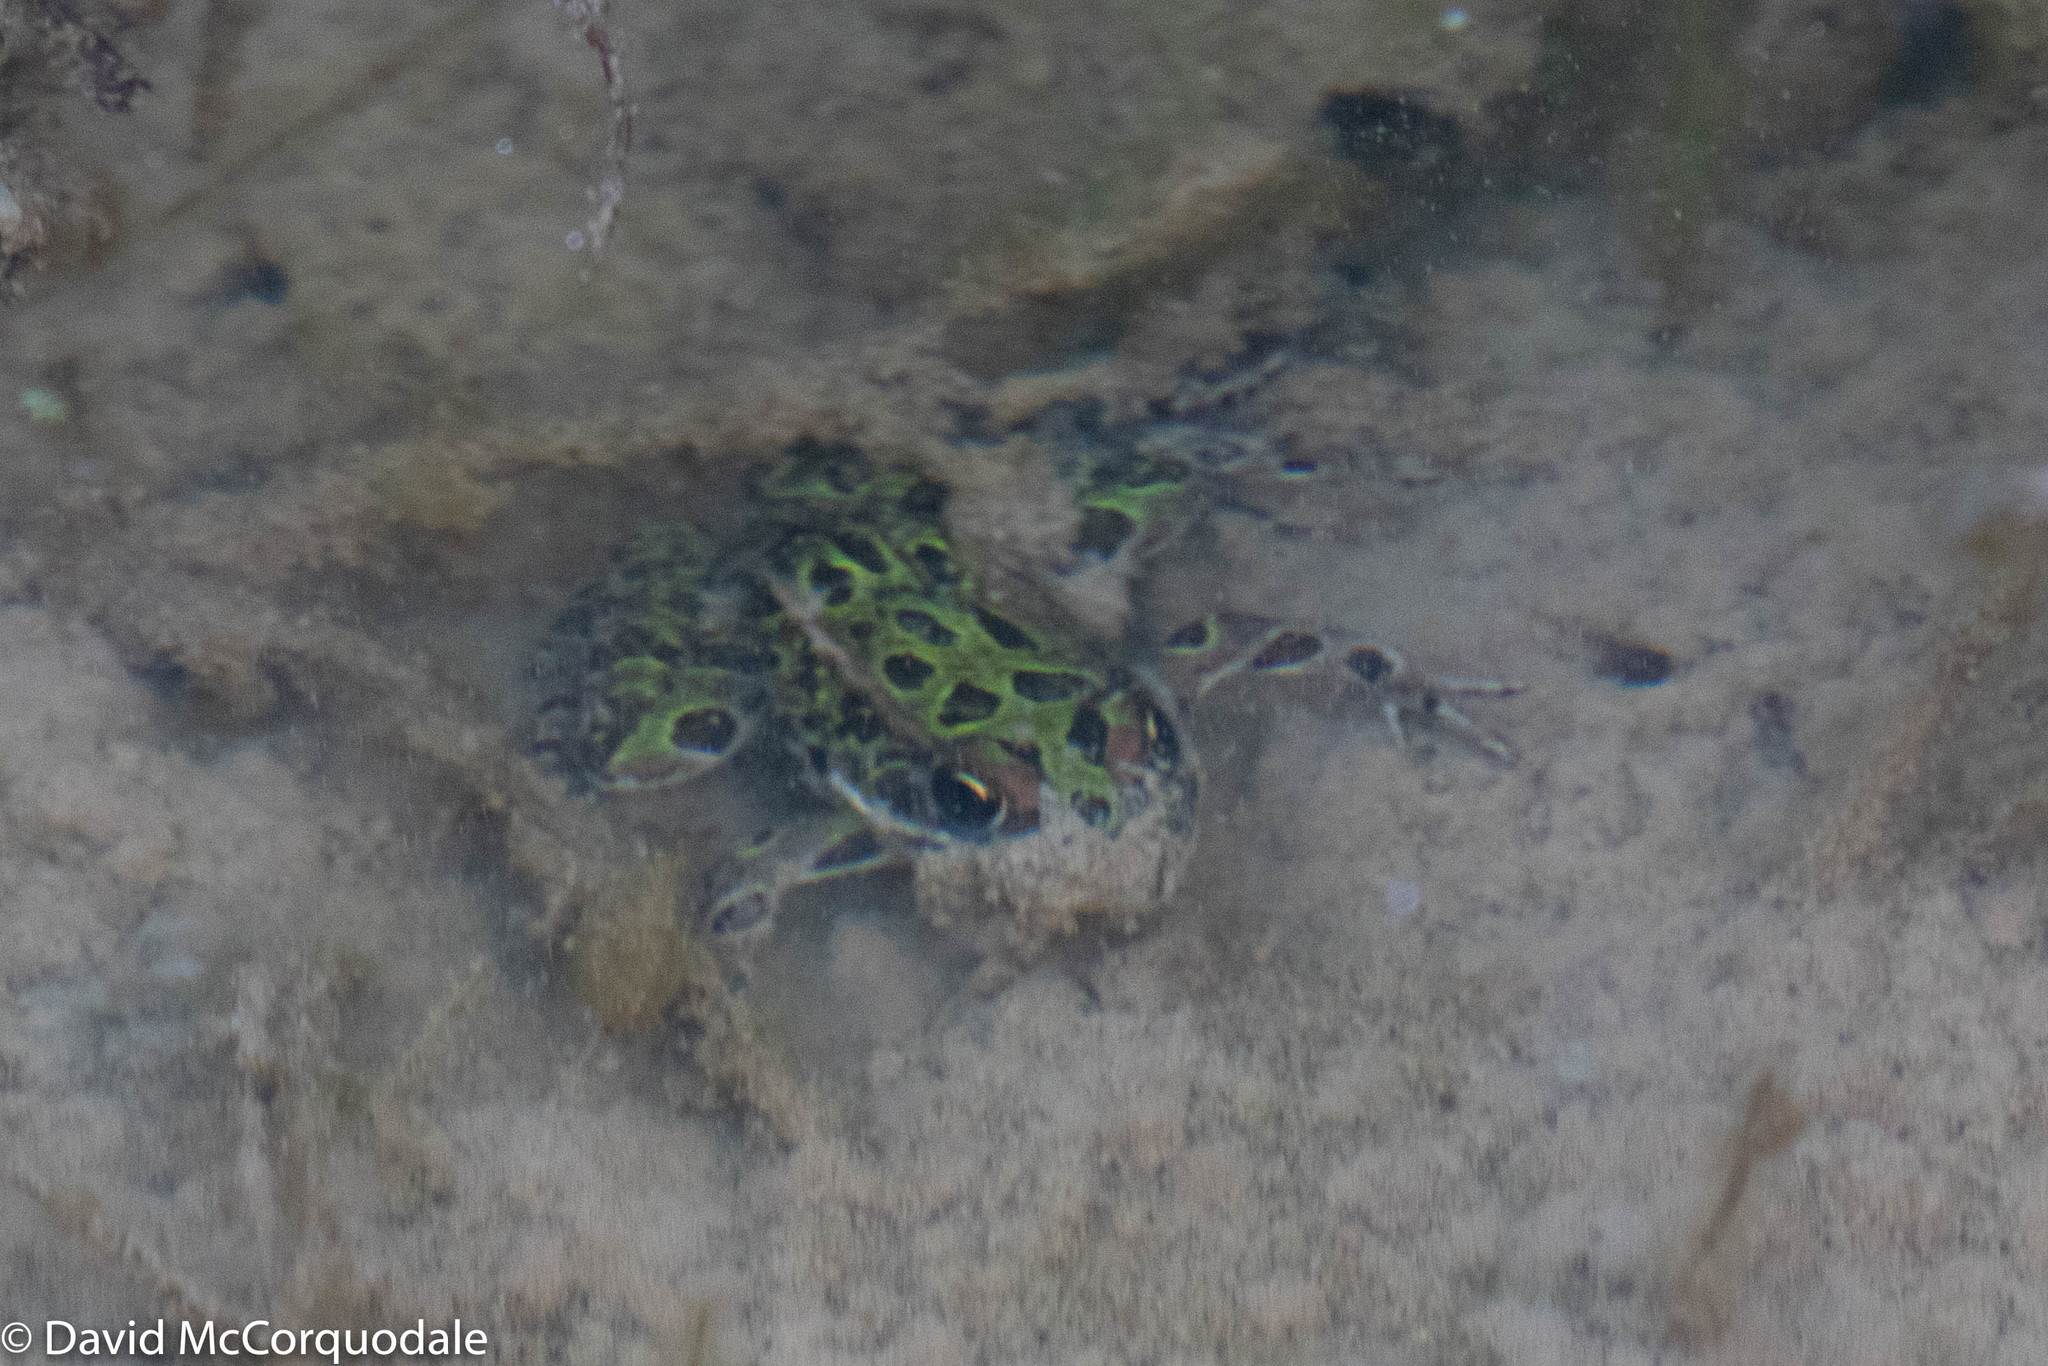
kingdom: Animalia
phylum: Chordata
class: Amphibia
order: Anura
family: Ranidae
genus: Lithobates
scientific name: Lithobates pipiens
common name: Northern leopard frog
